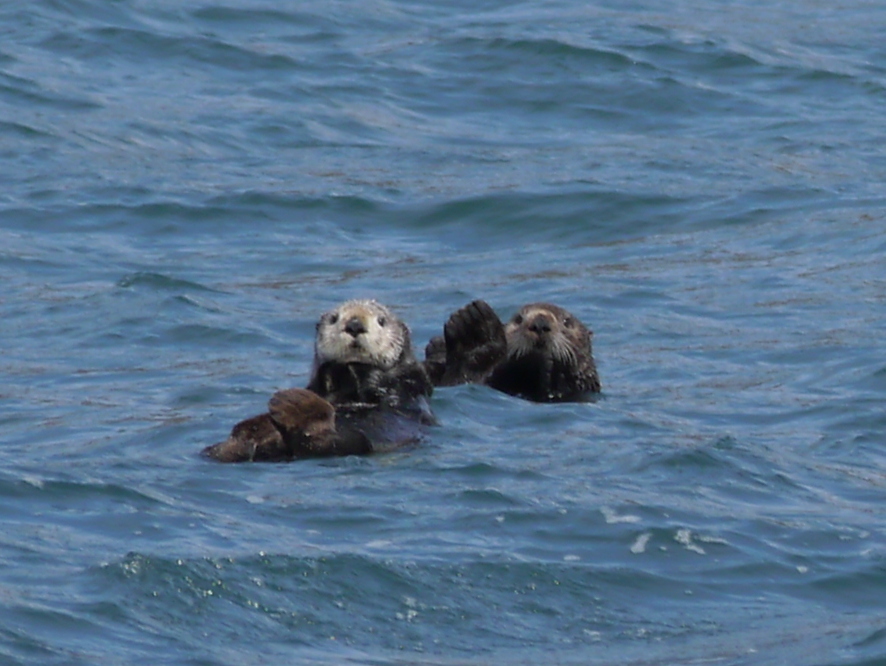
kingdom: Animalia
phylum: Chordata
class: Mammalia
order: Carnivora
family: Mustelidae
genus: Enhydra
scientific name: Enhydra lutris
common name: Sea otter
